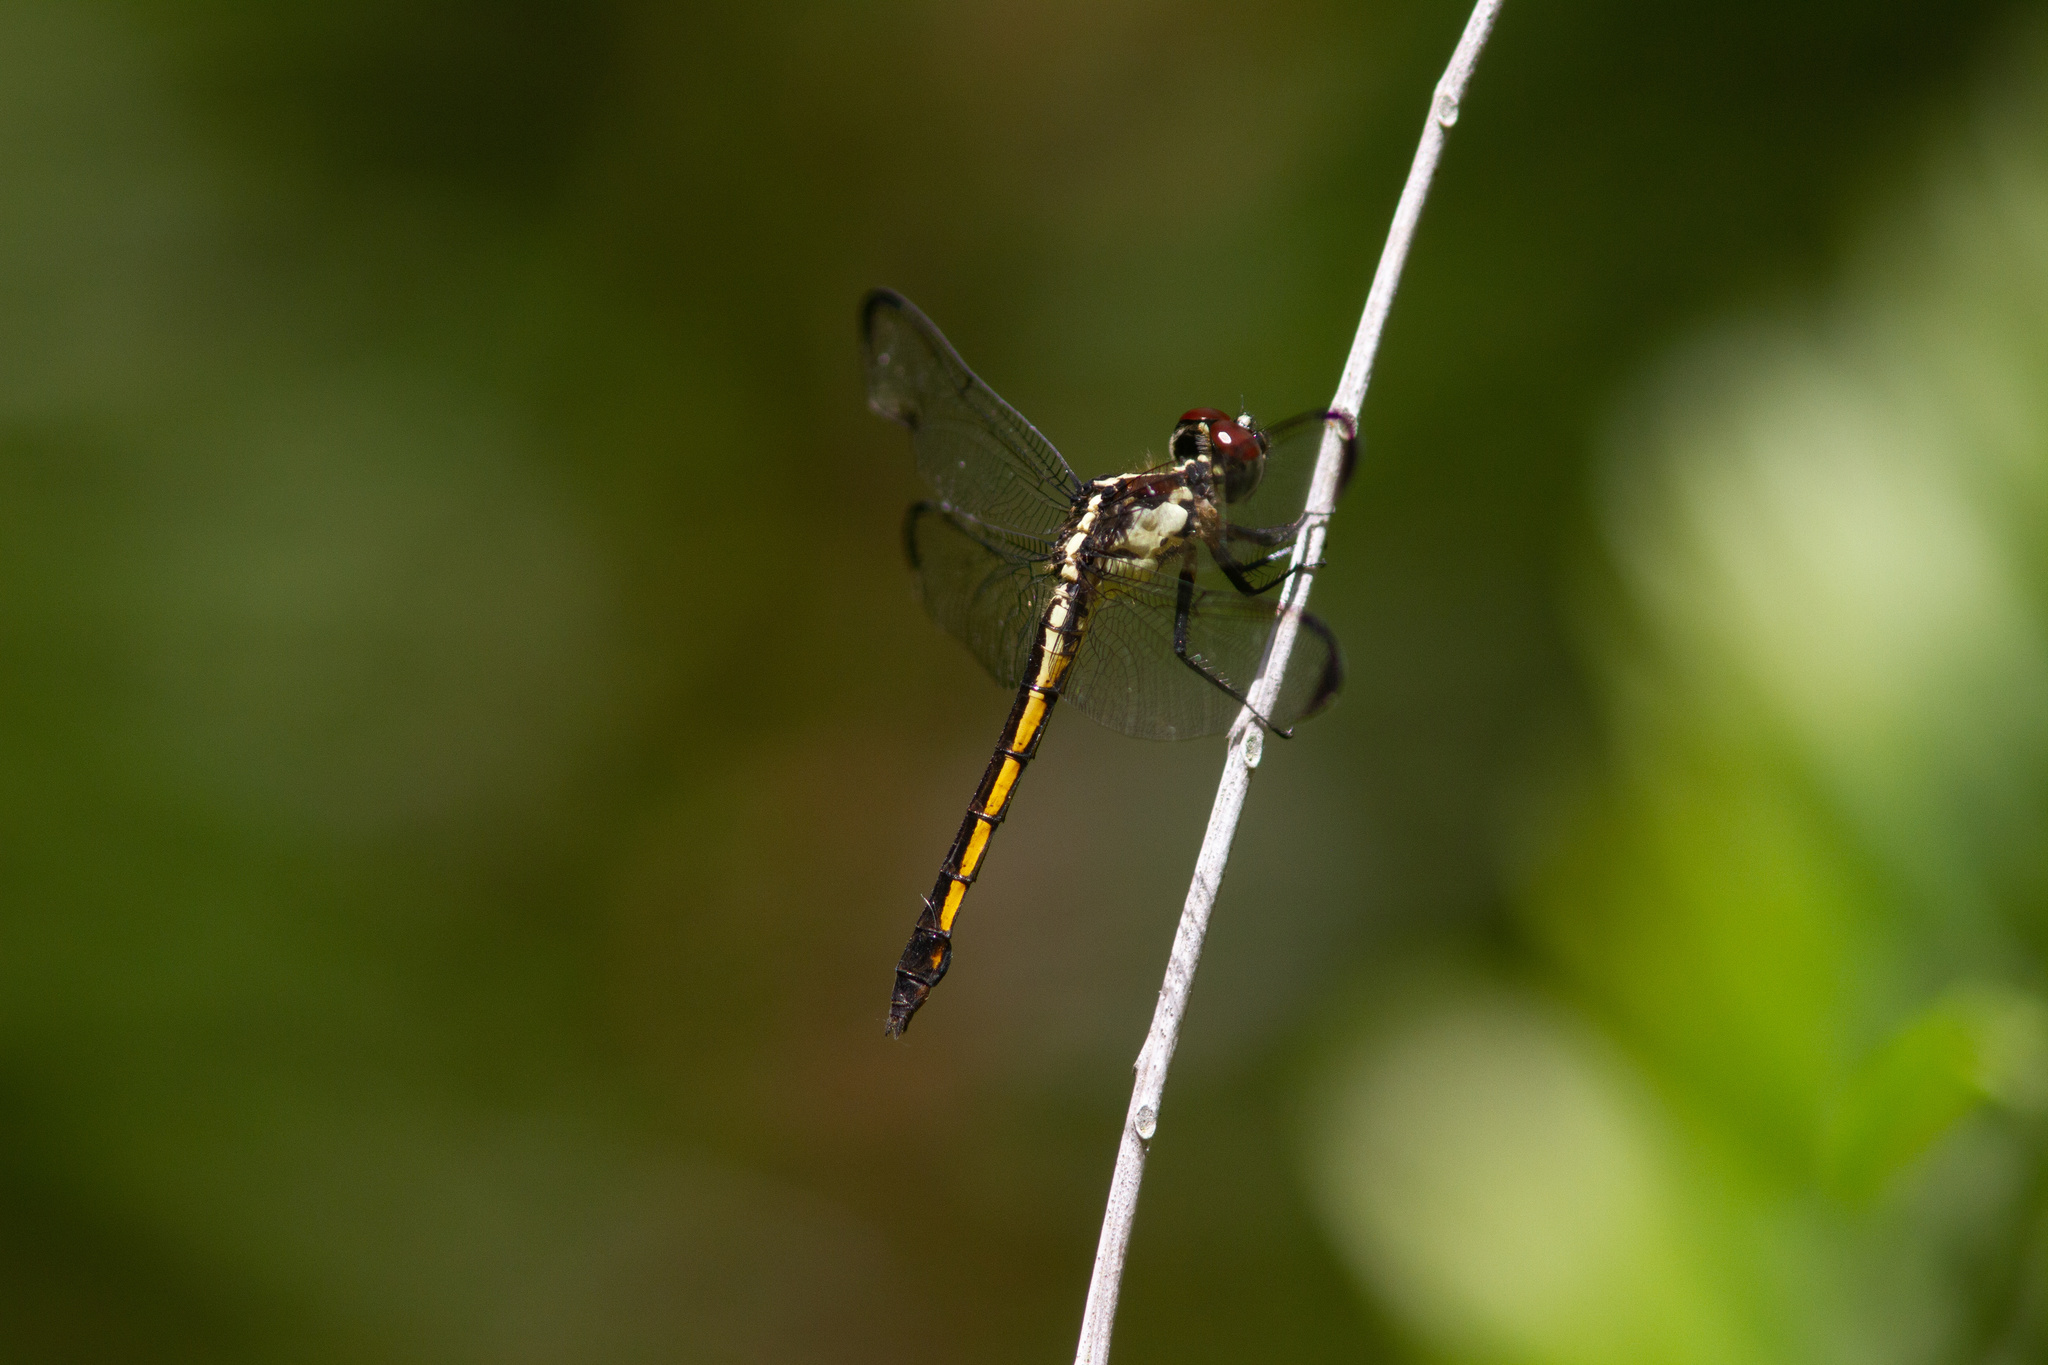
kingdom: Animalia
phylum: Arthropoda
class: Insecta
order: Odonata
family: Libellulidae
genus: Libellula
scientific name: Libellula incesta
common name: Slaty skimmer
